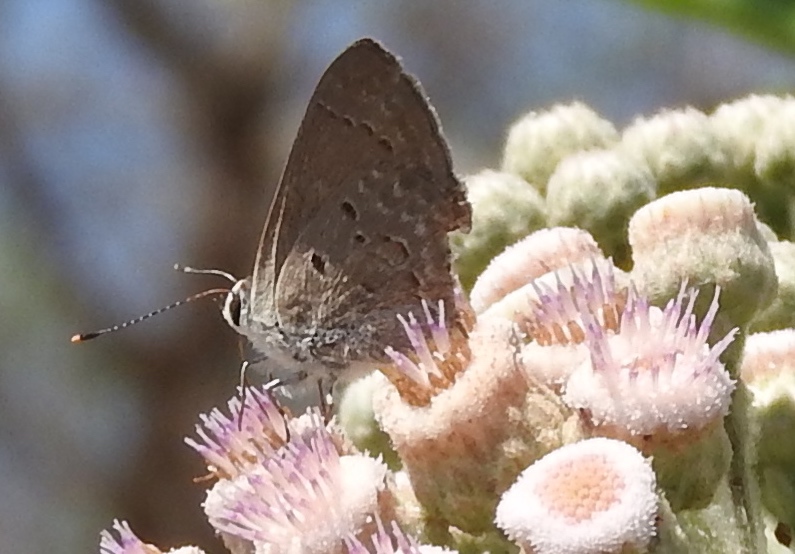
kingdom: Animalia
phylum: Arthropoda
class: Insecta
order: Lepidoptera
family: Lycaenidae
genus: Callicista
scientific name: Callicista columella
